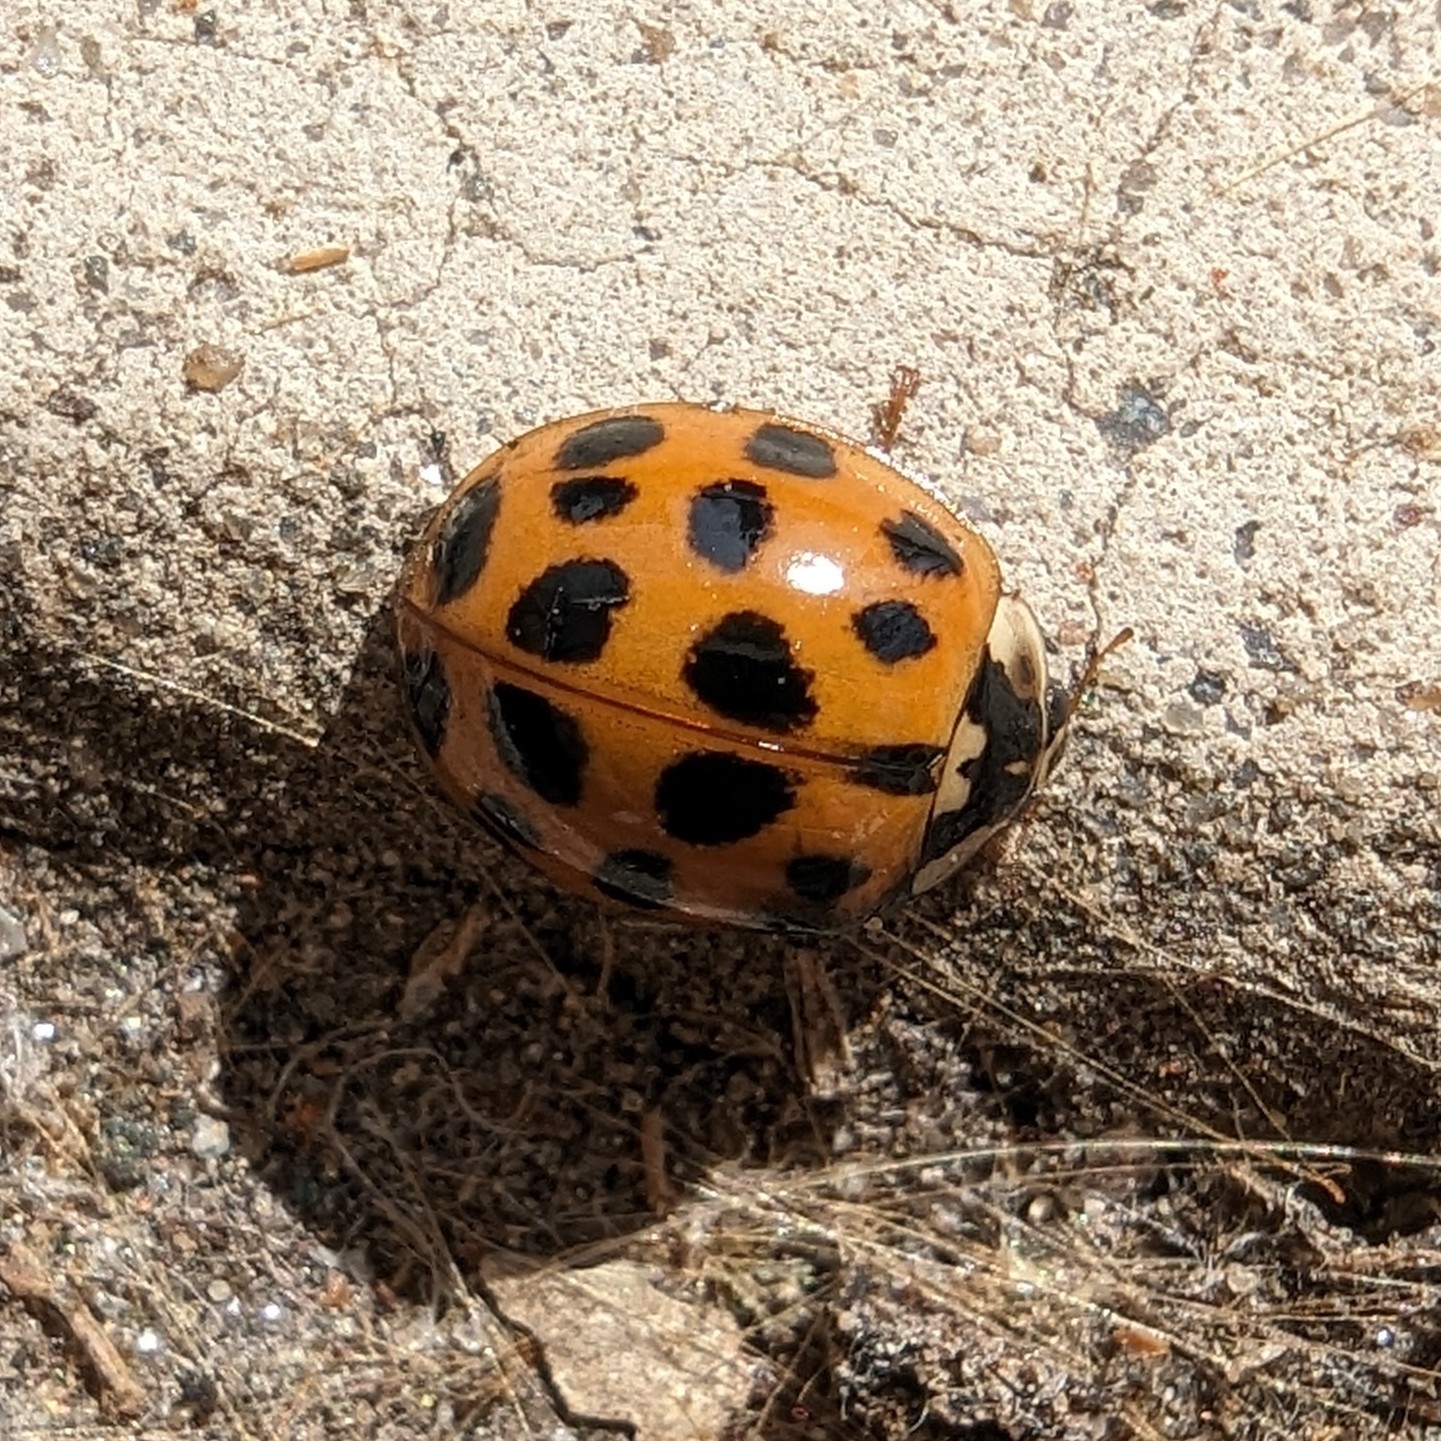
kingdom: Animalia
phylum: Arthropoda
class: Insecta
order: Coleoptera
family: Coccinellidae
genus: Harmonia
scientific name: Harmonia axyridis
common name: Harlequin ladybird
